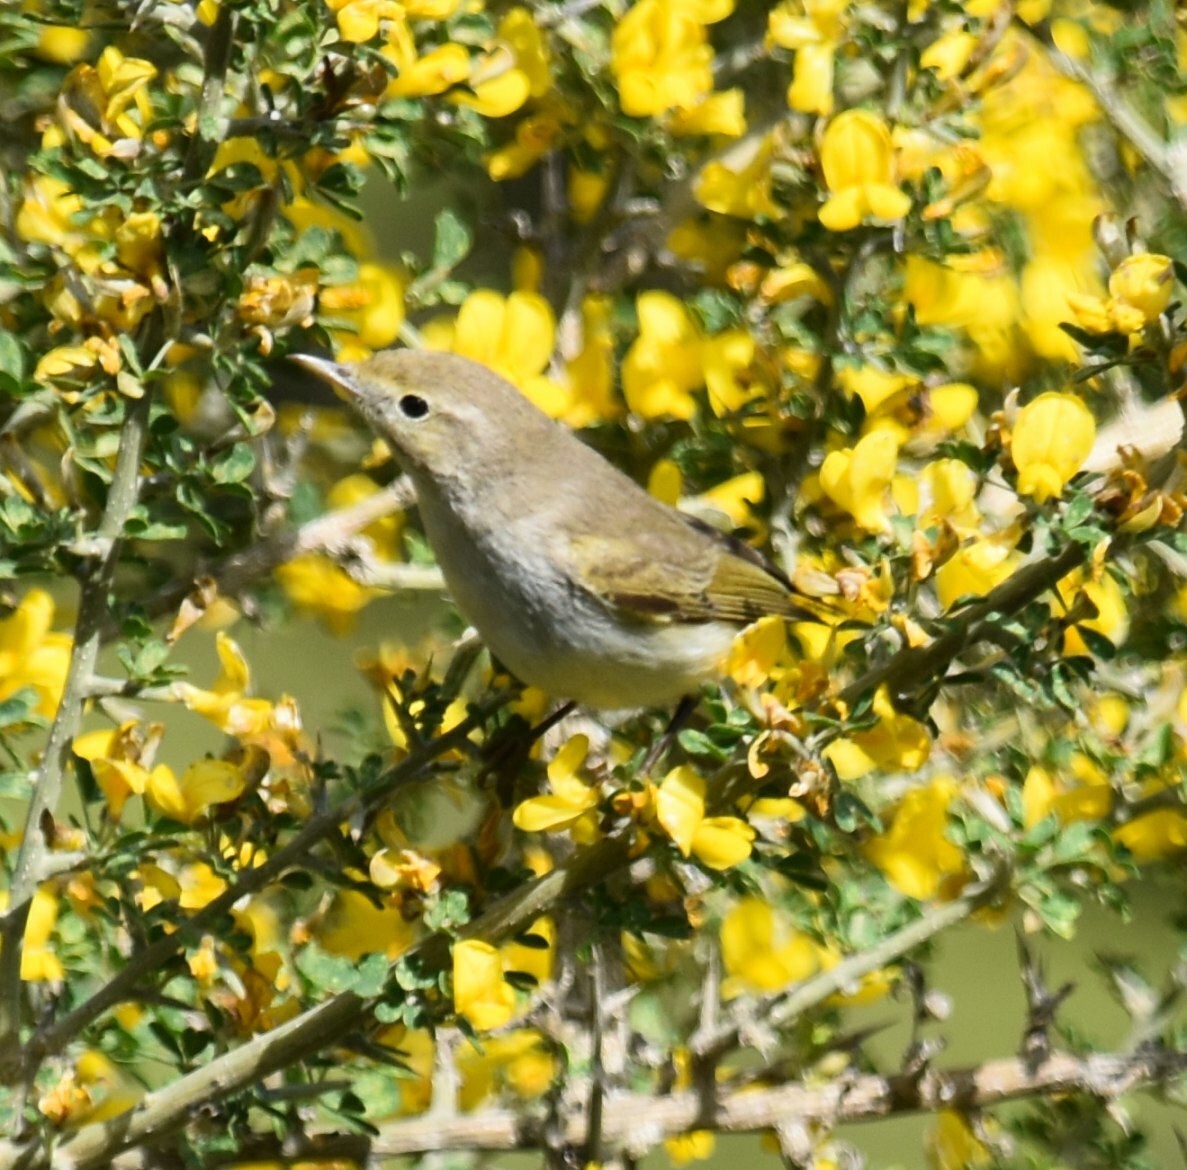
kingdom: Animalia
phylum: Chordata
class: Aves
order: Passeriformes
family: Phylloscopidae
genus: Phylloscopus
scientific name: Phylloscopus orientalis
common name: Eastern bonelli's warbler
